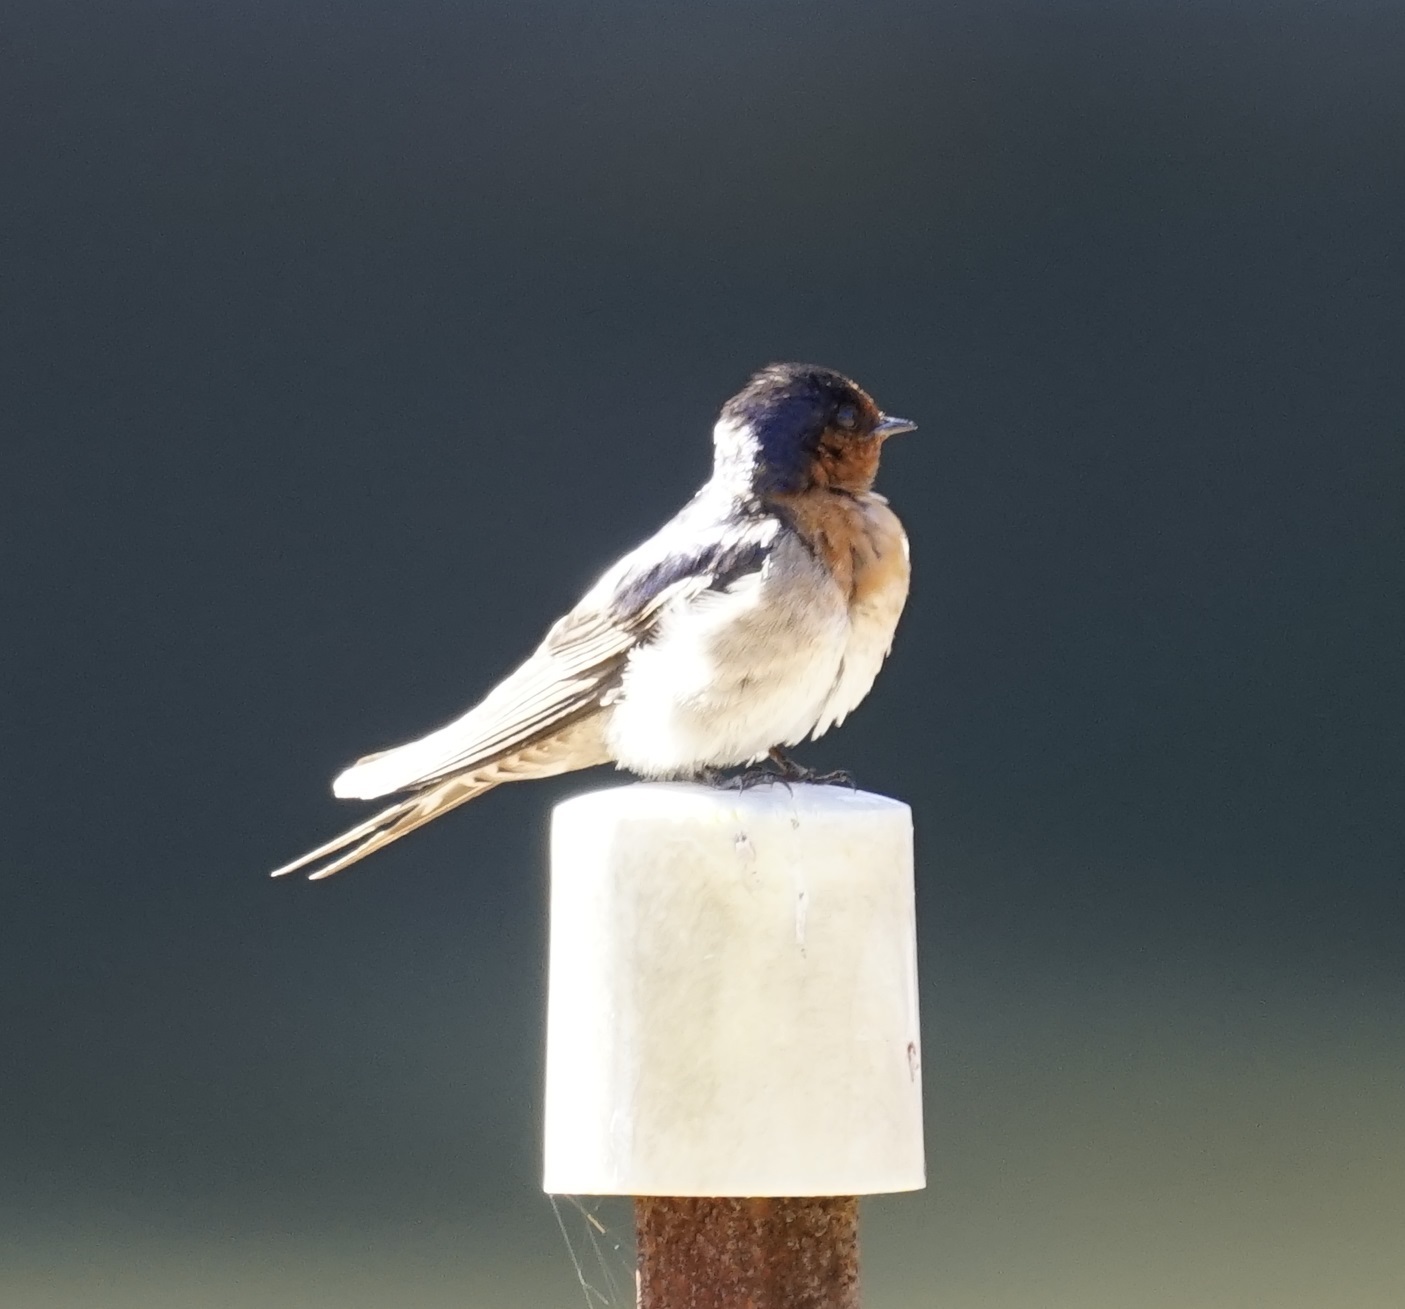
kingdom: Animalia
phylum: Chordata
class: Aves
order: Passeriformes
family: Hirundinidae
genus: Hirundo
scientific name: Hirundo neoxena
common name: Welcome swallow
